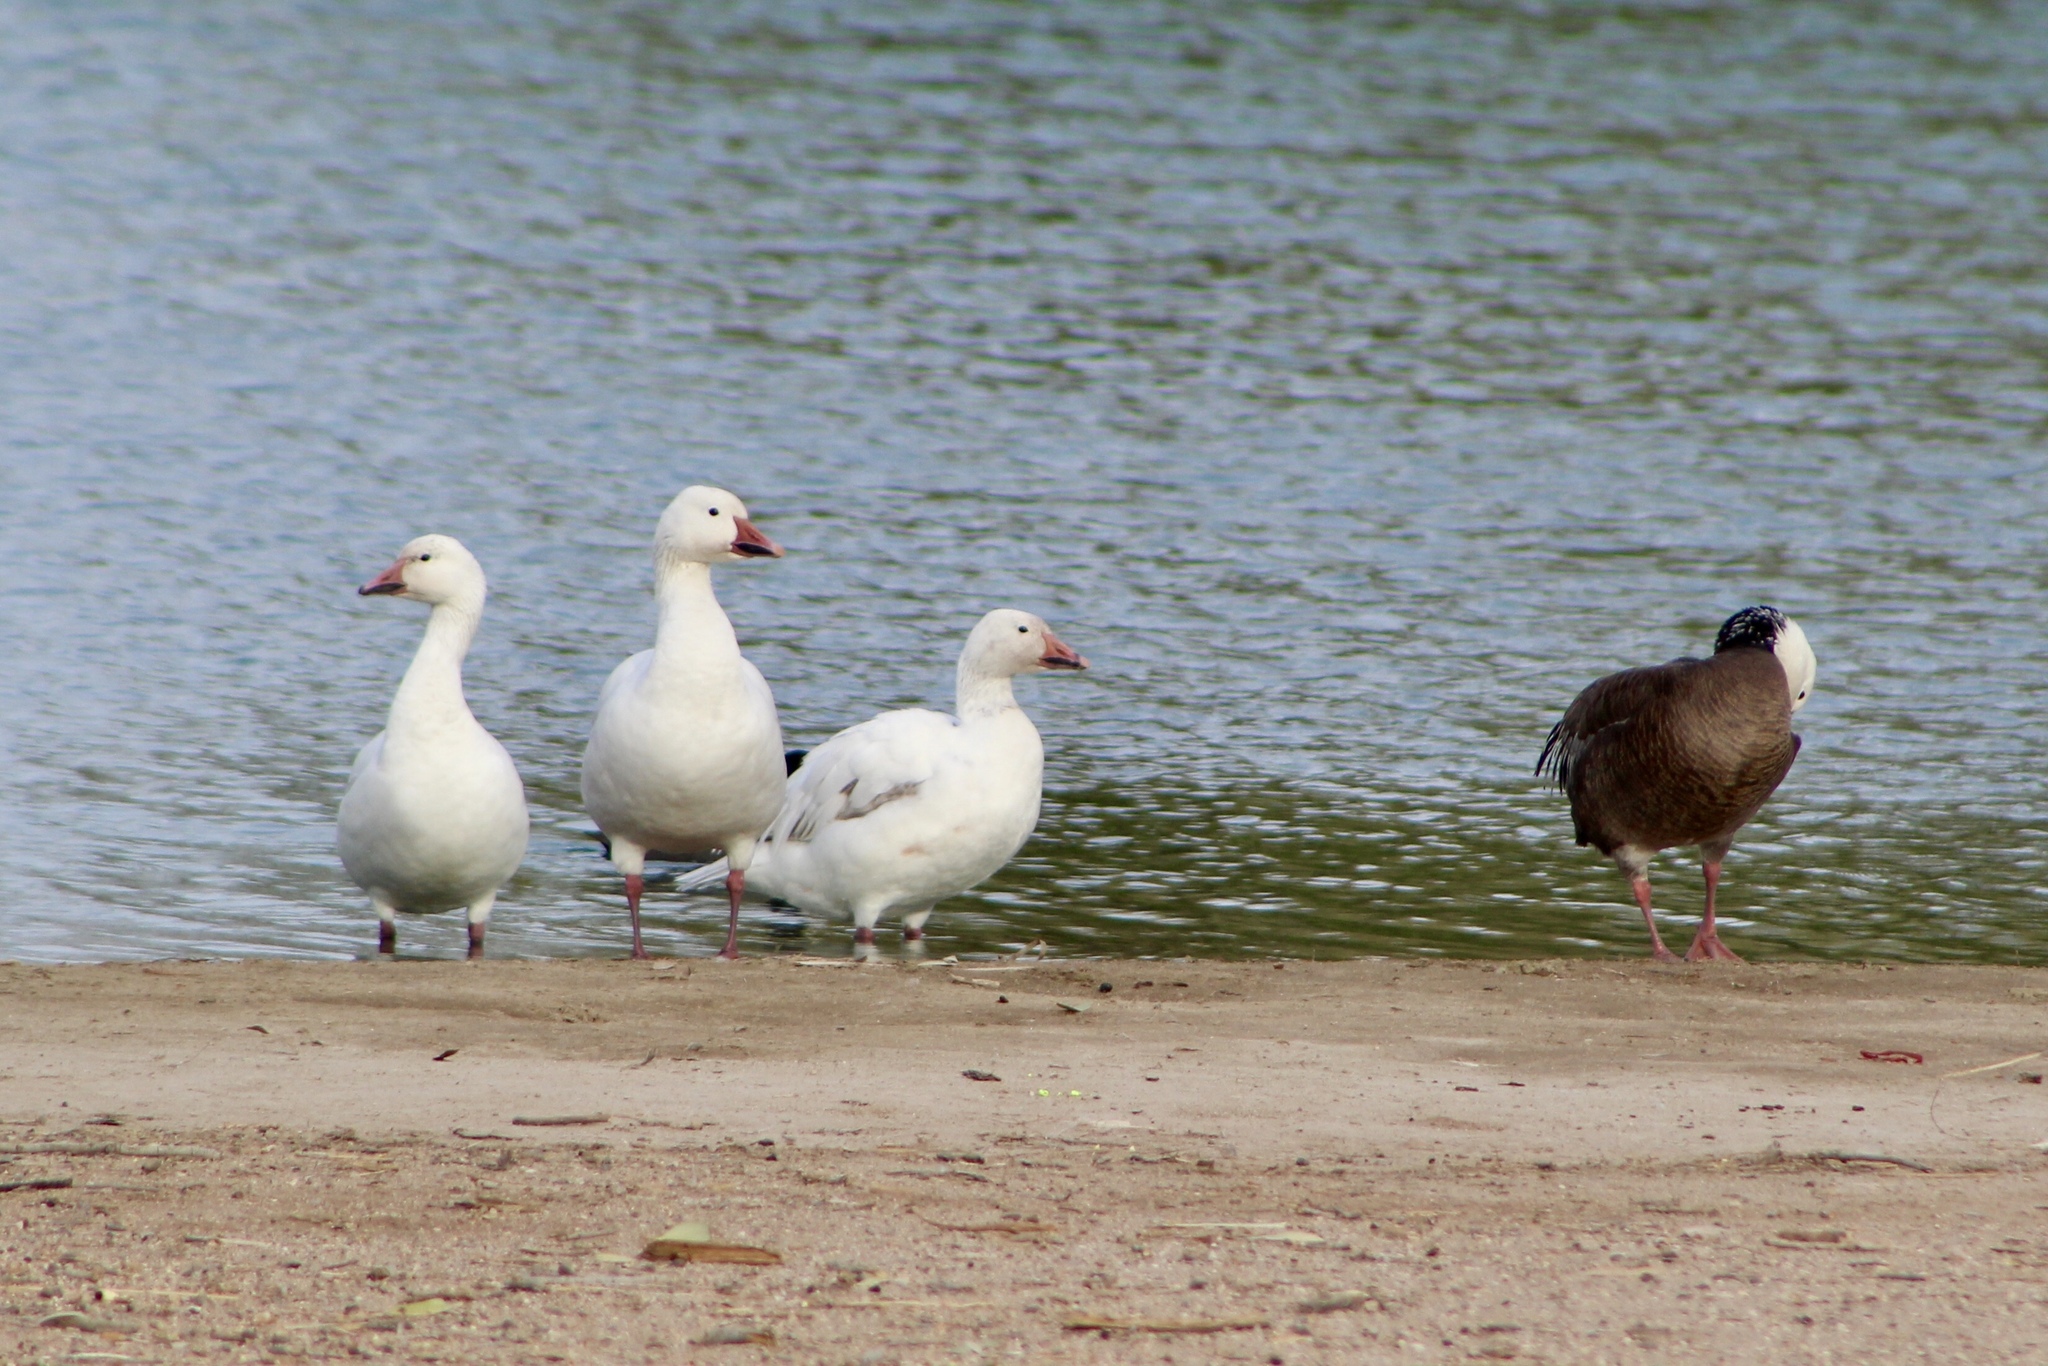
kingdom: Animalia
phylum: Chordata
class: Aves
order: Anseriformes
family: Anatidae
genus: Anser
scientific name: Anser caerulescens
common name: Snow goose
